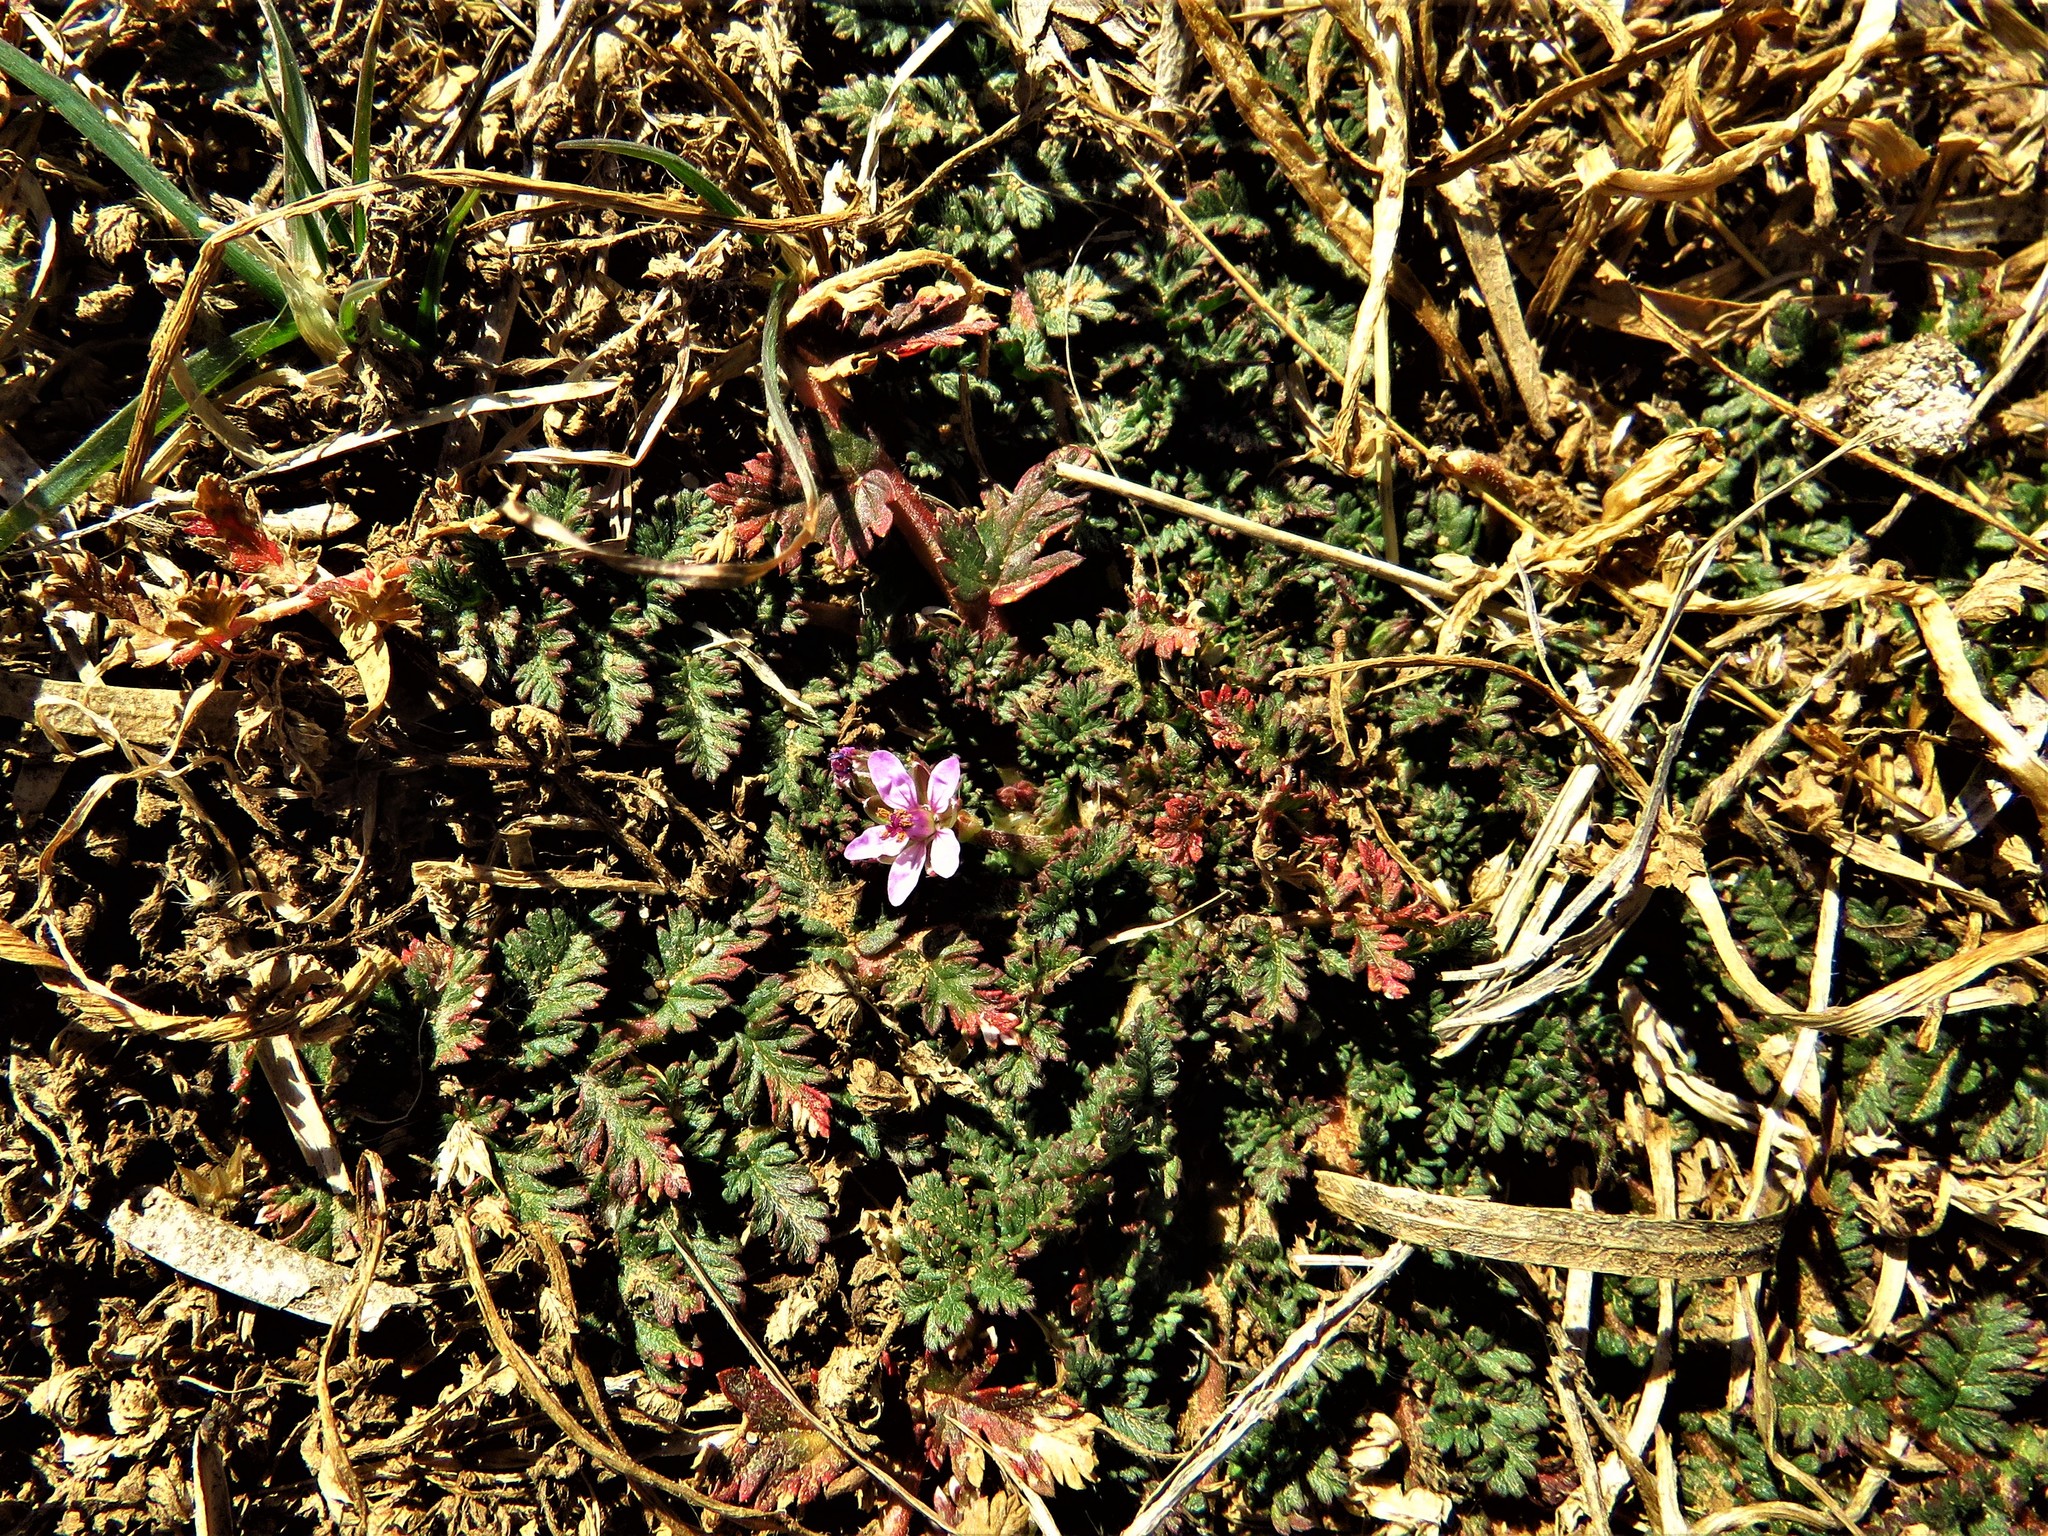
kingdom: Plantae
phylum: Tracheophyta
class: Magnoliopsida
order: Geraniales
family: Geraniaceae
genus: Erodium
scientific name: Erodium cicutarium
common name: Common stork's-bill
